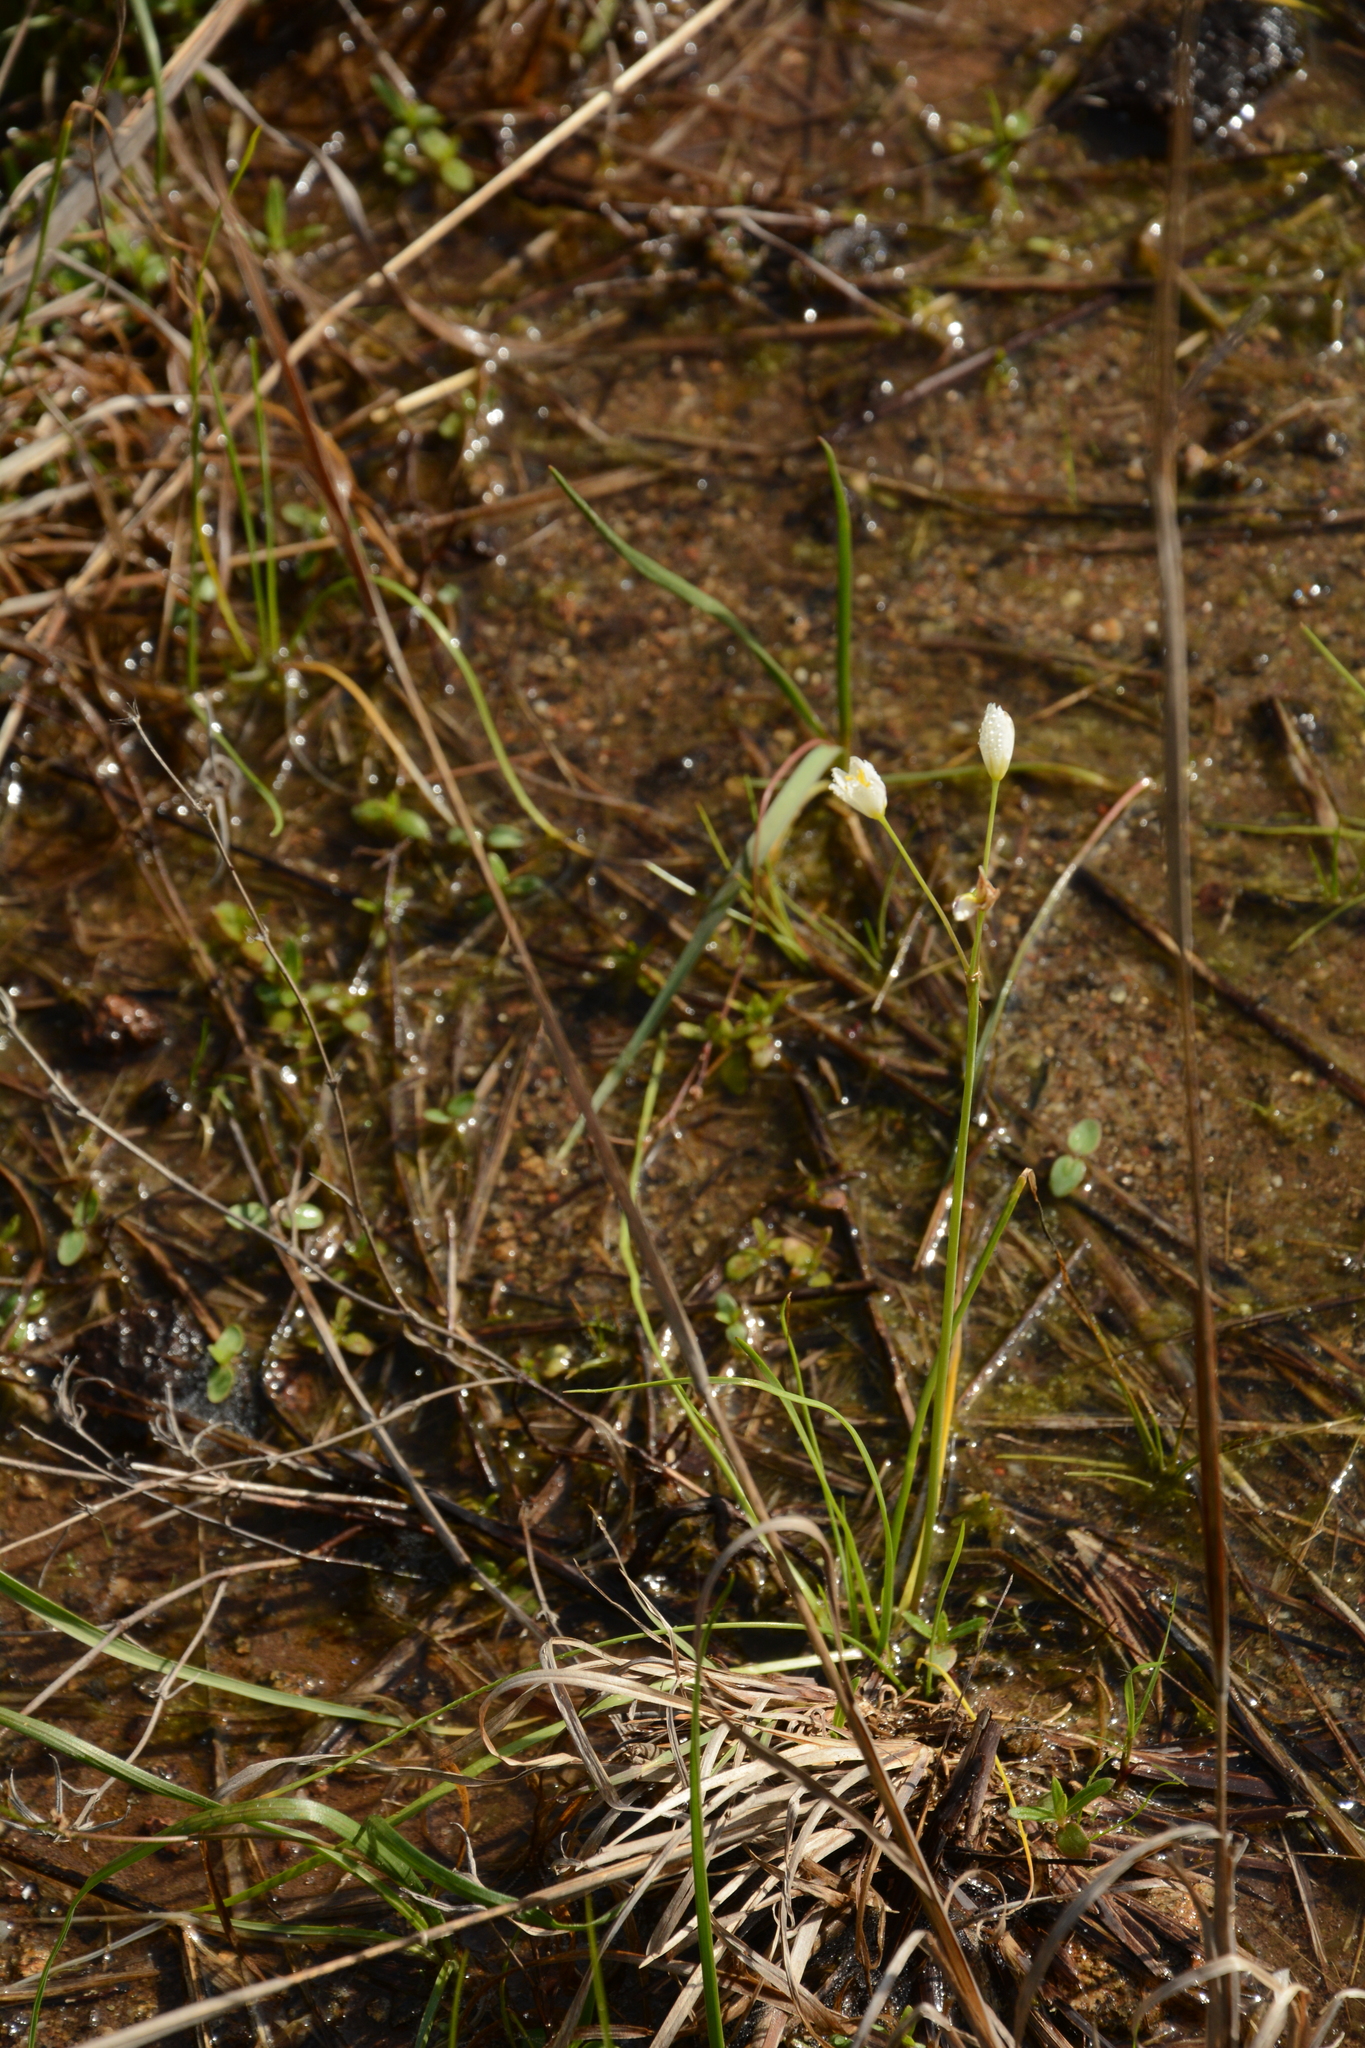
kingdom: Plantae
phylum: Tracheophyta
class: Liliopsida
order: Asparagales
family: Amaryllidaceae
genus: Nothoscordum
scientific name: Nothoscordum bivalve
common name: Crow-poison
